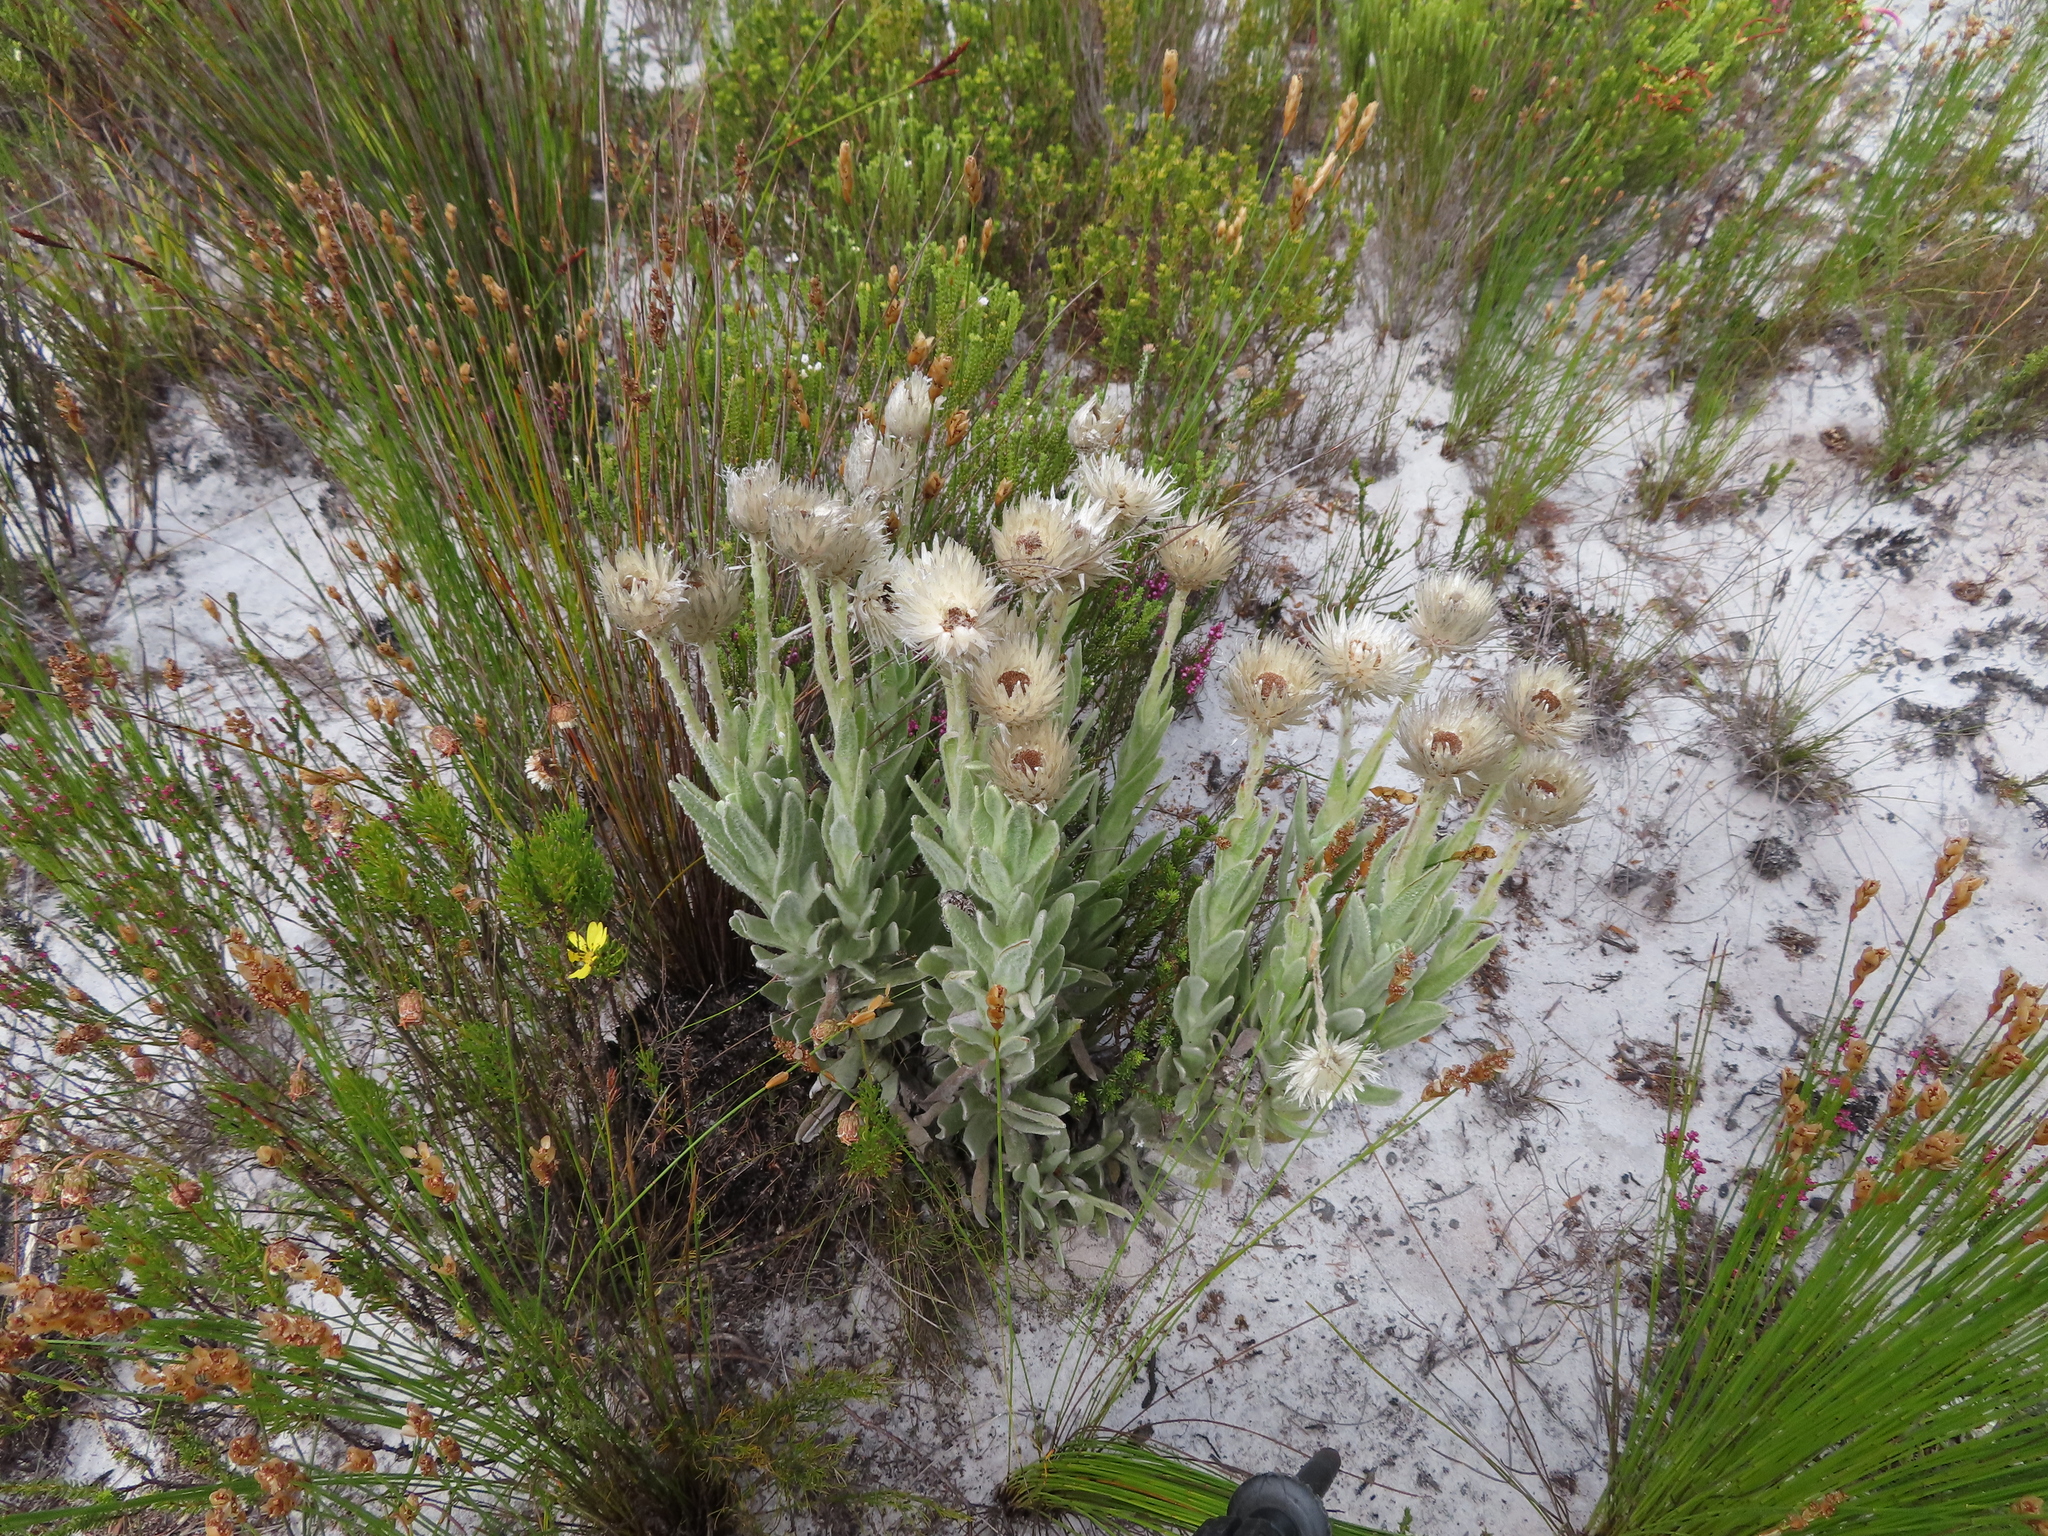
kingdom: Plantae
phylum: Tracheophyta
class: Magnoliopsida
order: Asterales
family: Asteraceae
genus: Syncarpha
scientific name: Syncarpha vestita
